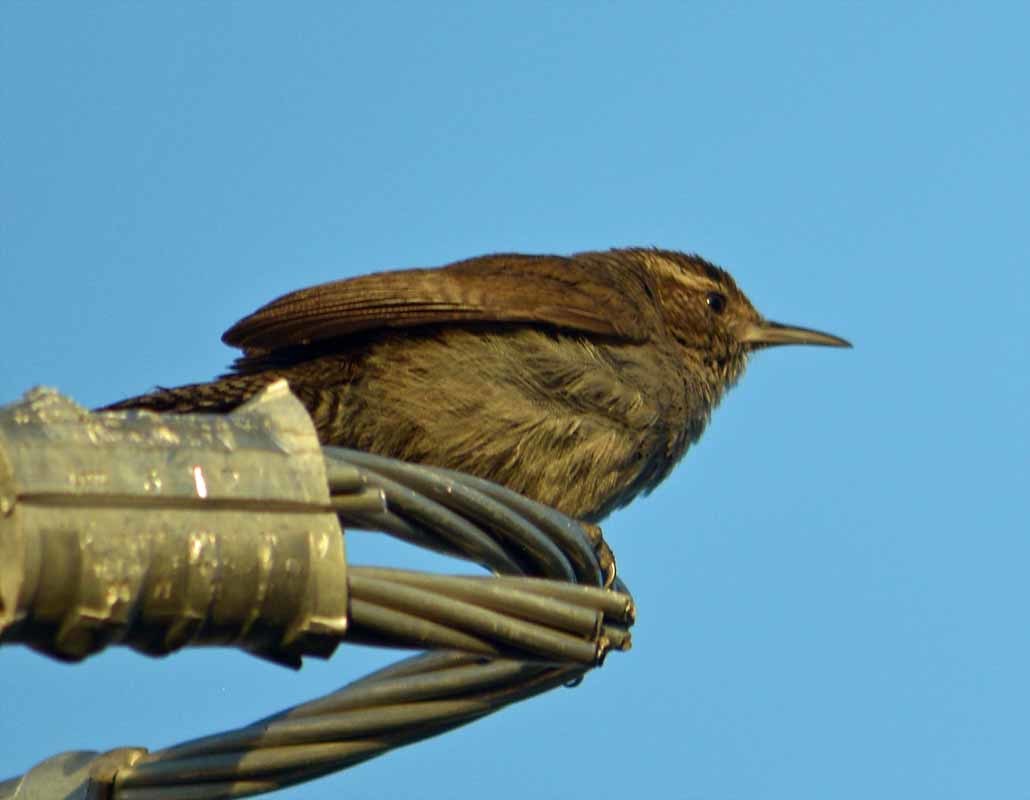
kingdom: Animalia
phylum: Chordata
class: Aves
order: Passeriformes
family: Troglodytidae
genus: Thryomanes
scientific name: Thryomanes bewickii
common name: Bewick's wren
